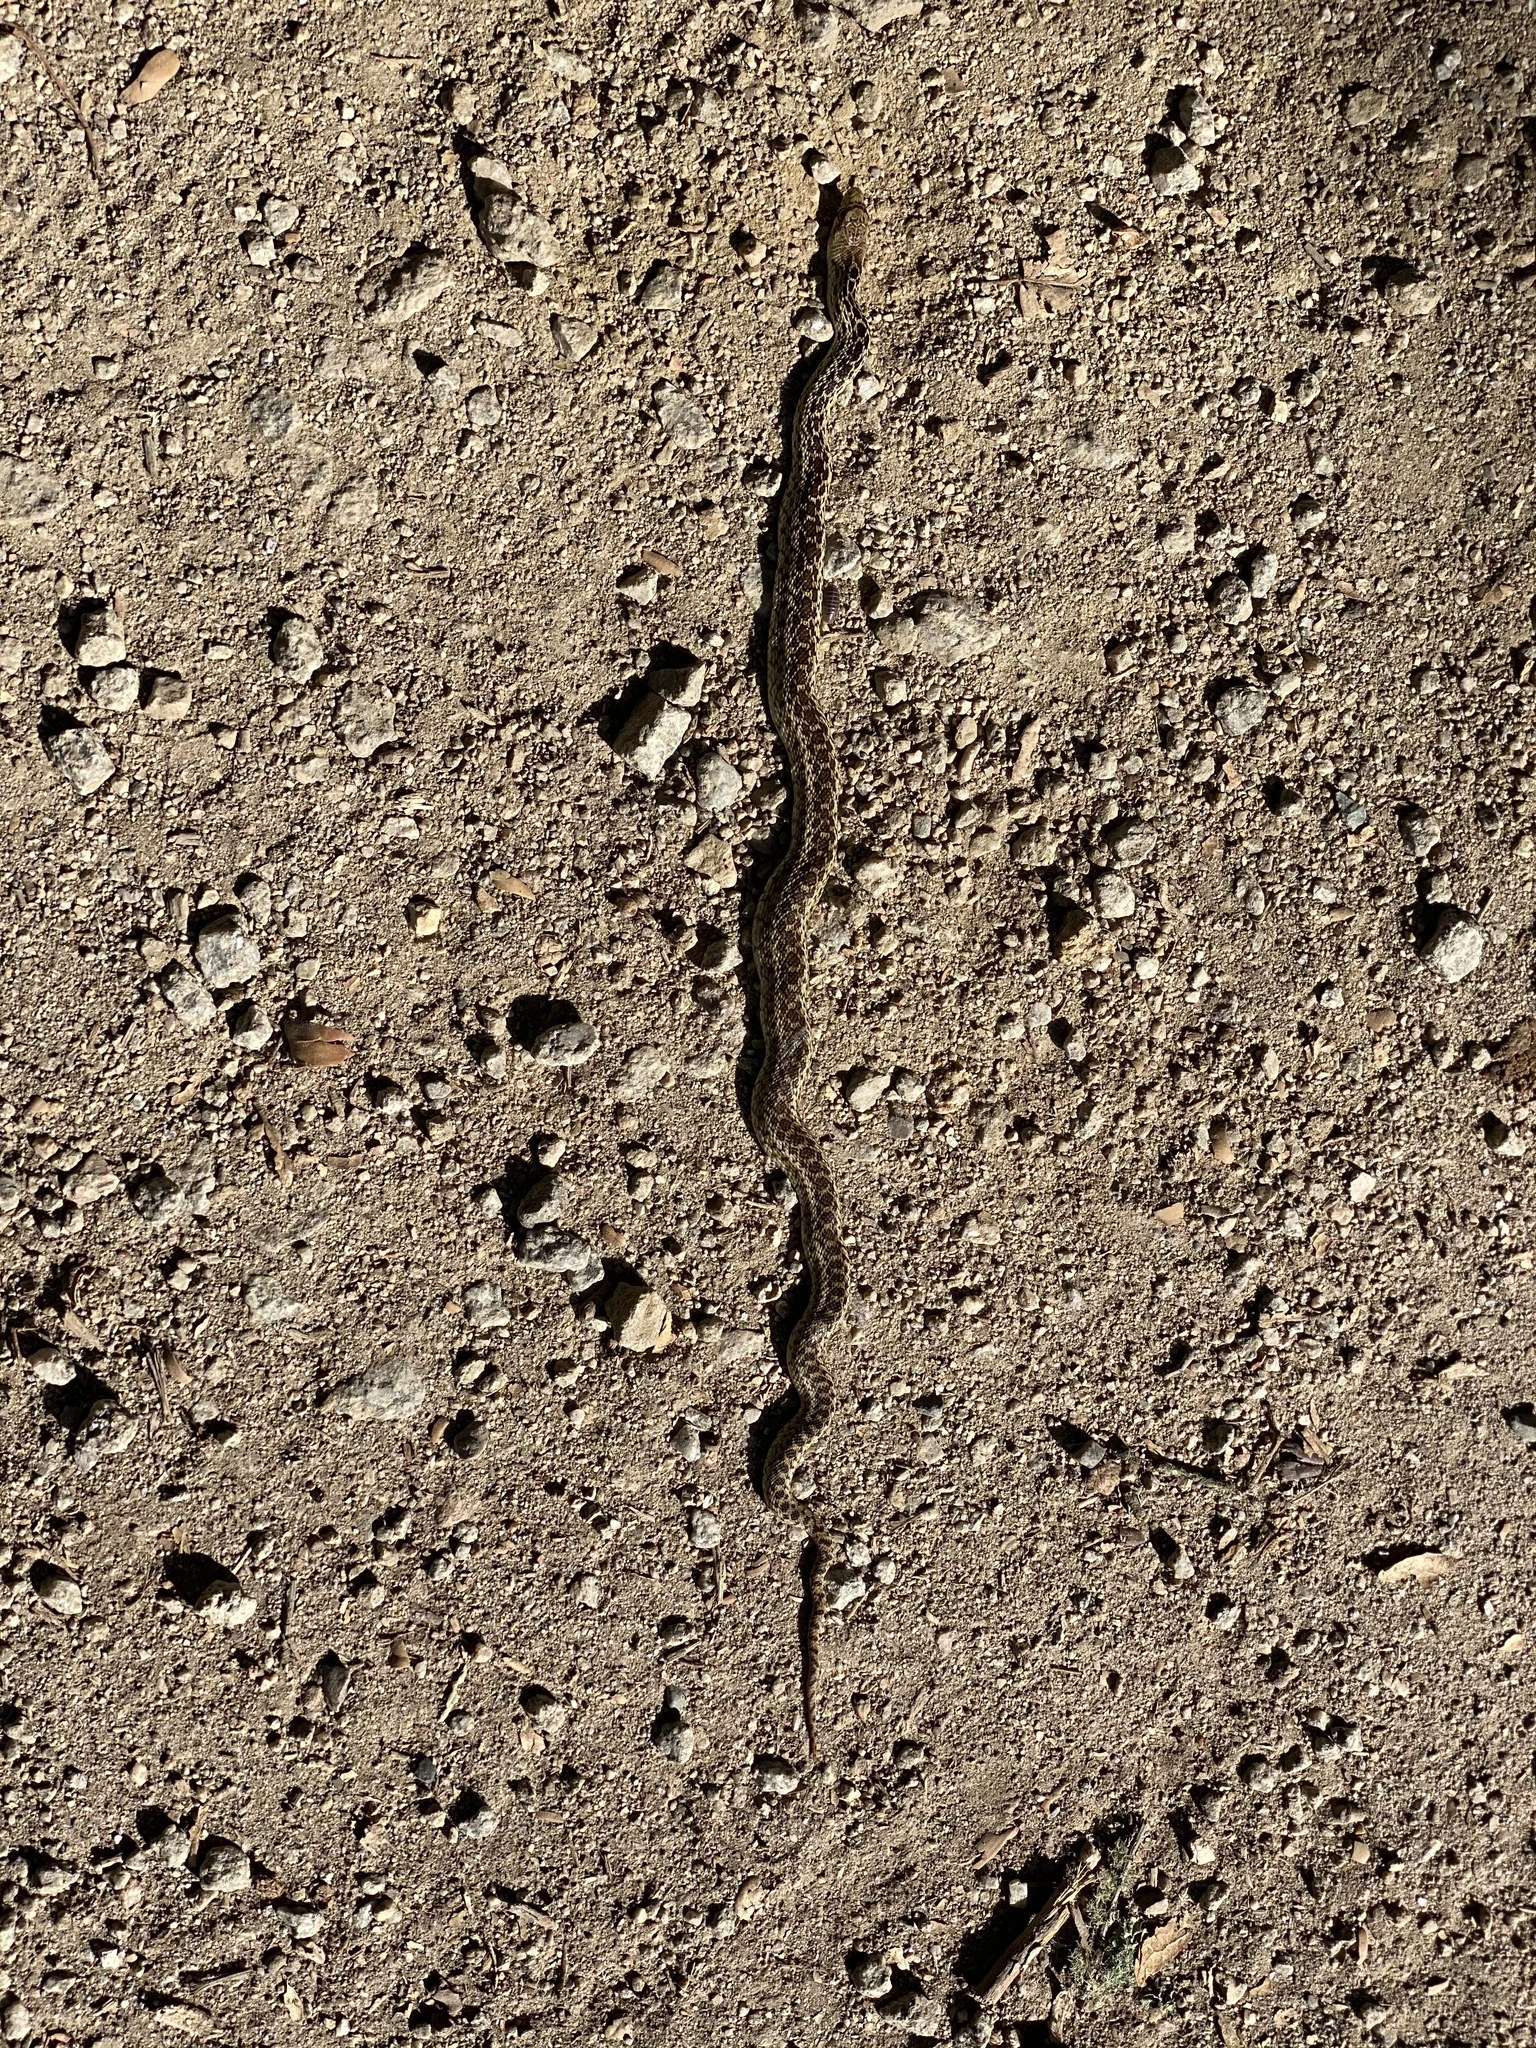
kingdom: Animalia
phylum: Chordata
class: Squamata
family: Colubridae
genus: Pituophis
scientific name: Pituophis catenifer
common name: Gopher snake
